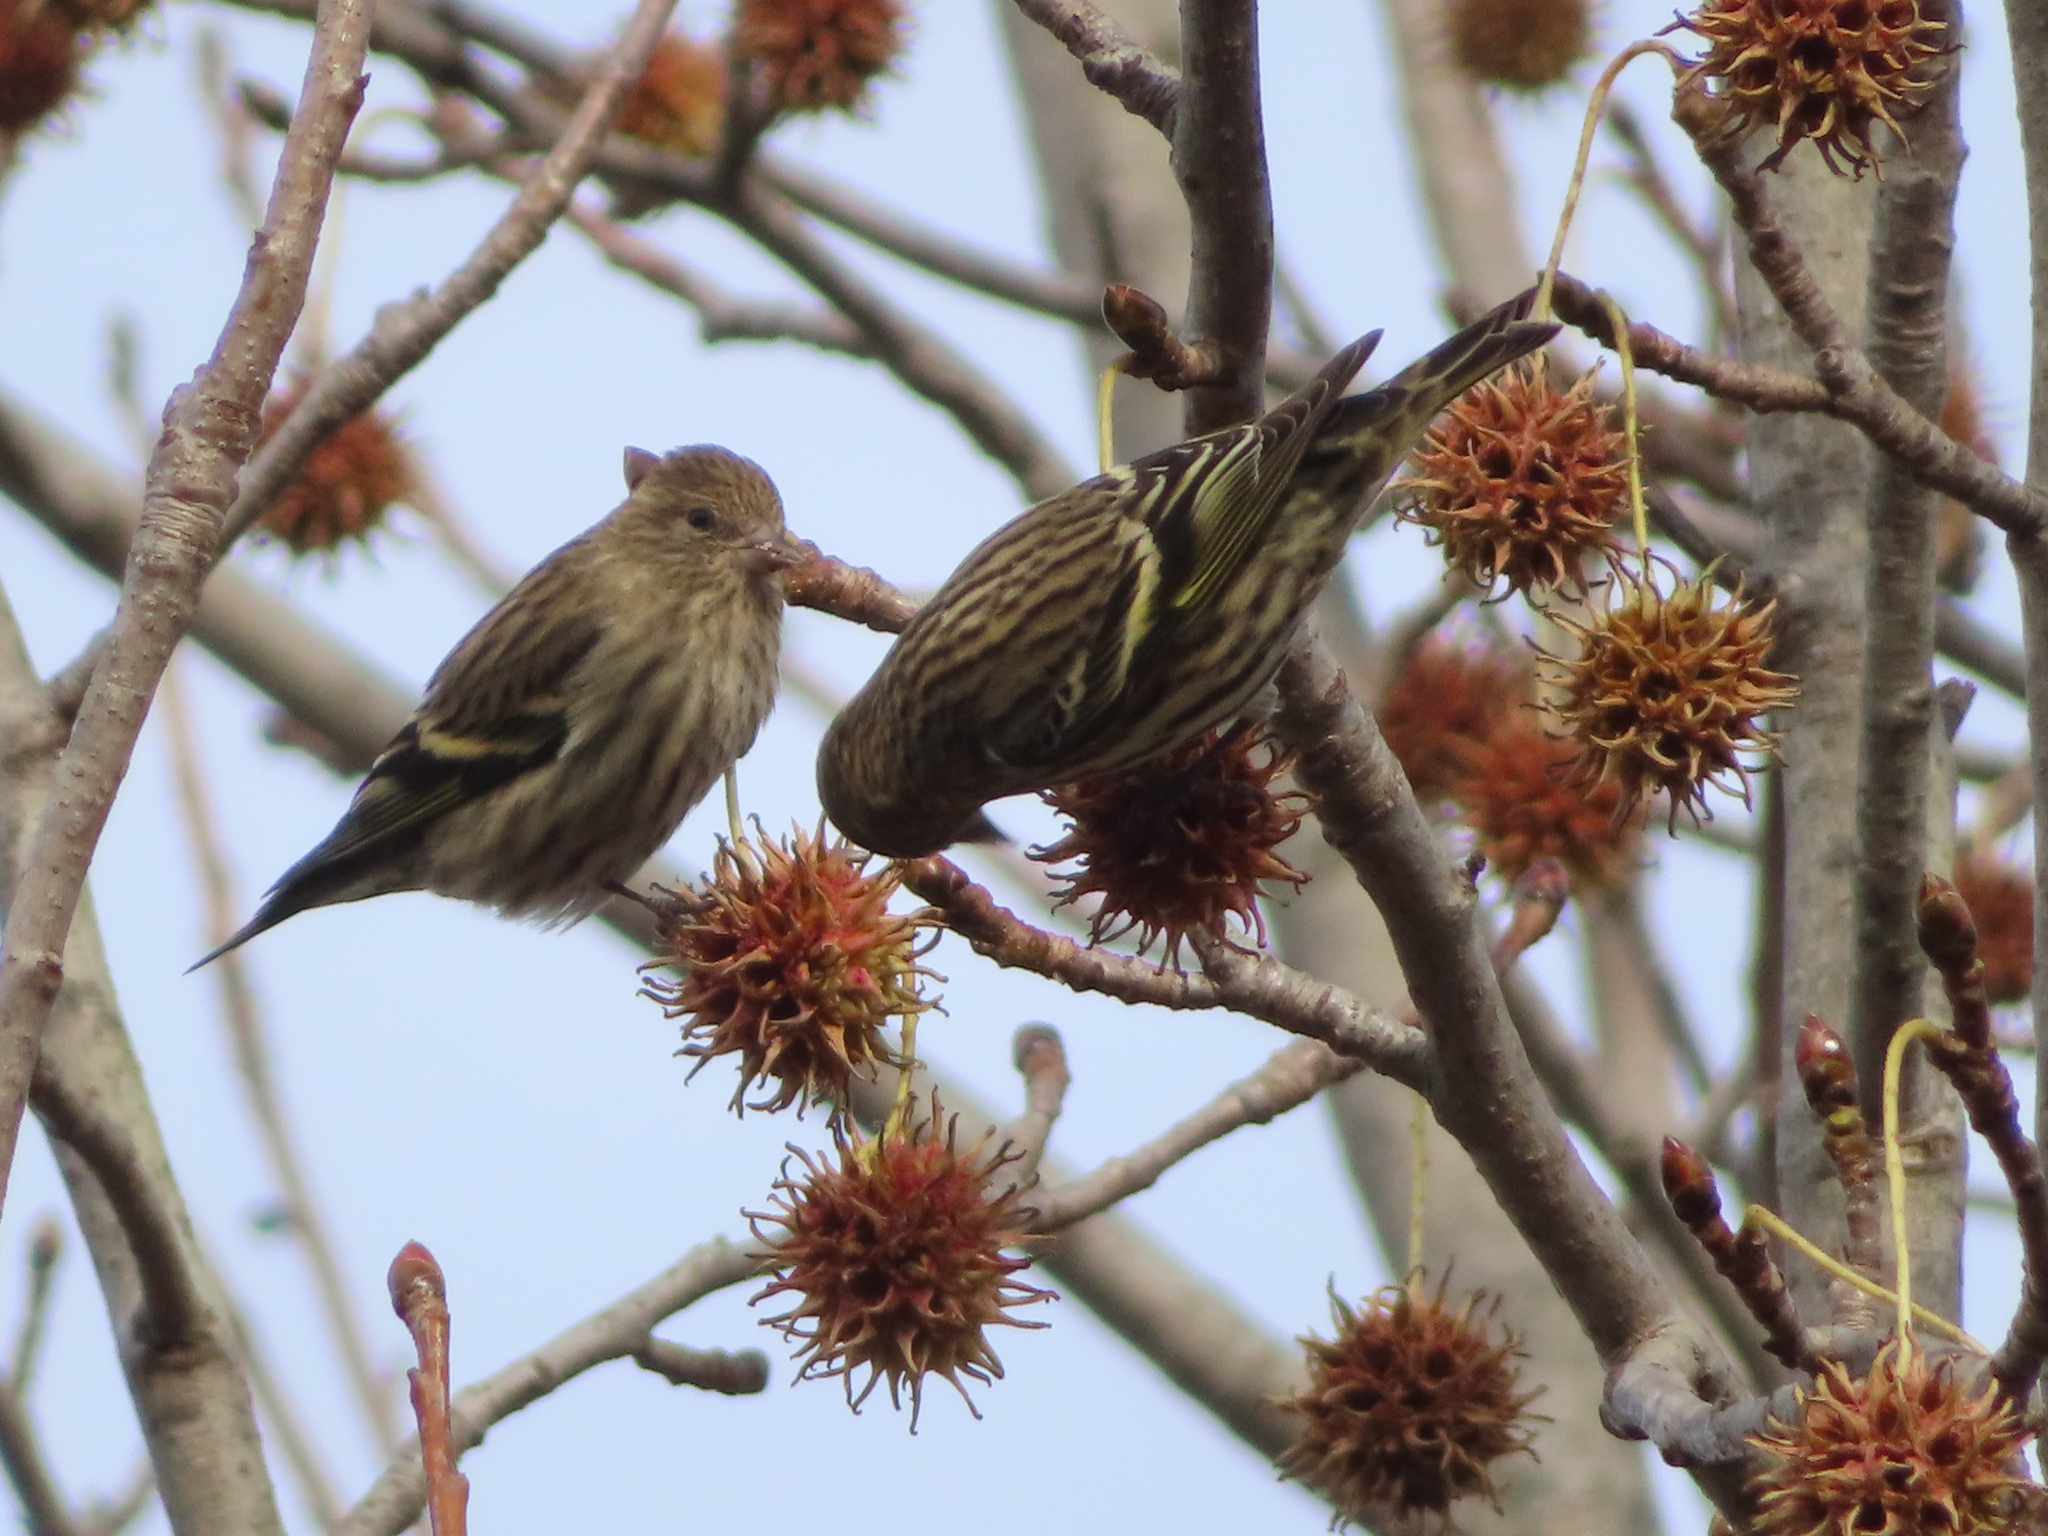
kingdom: Animalia
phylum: Chordata
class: Aves
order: Passeriformes
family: Fringillidae
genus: Spinus
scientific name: Spinus pinus
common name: Pine siskin
